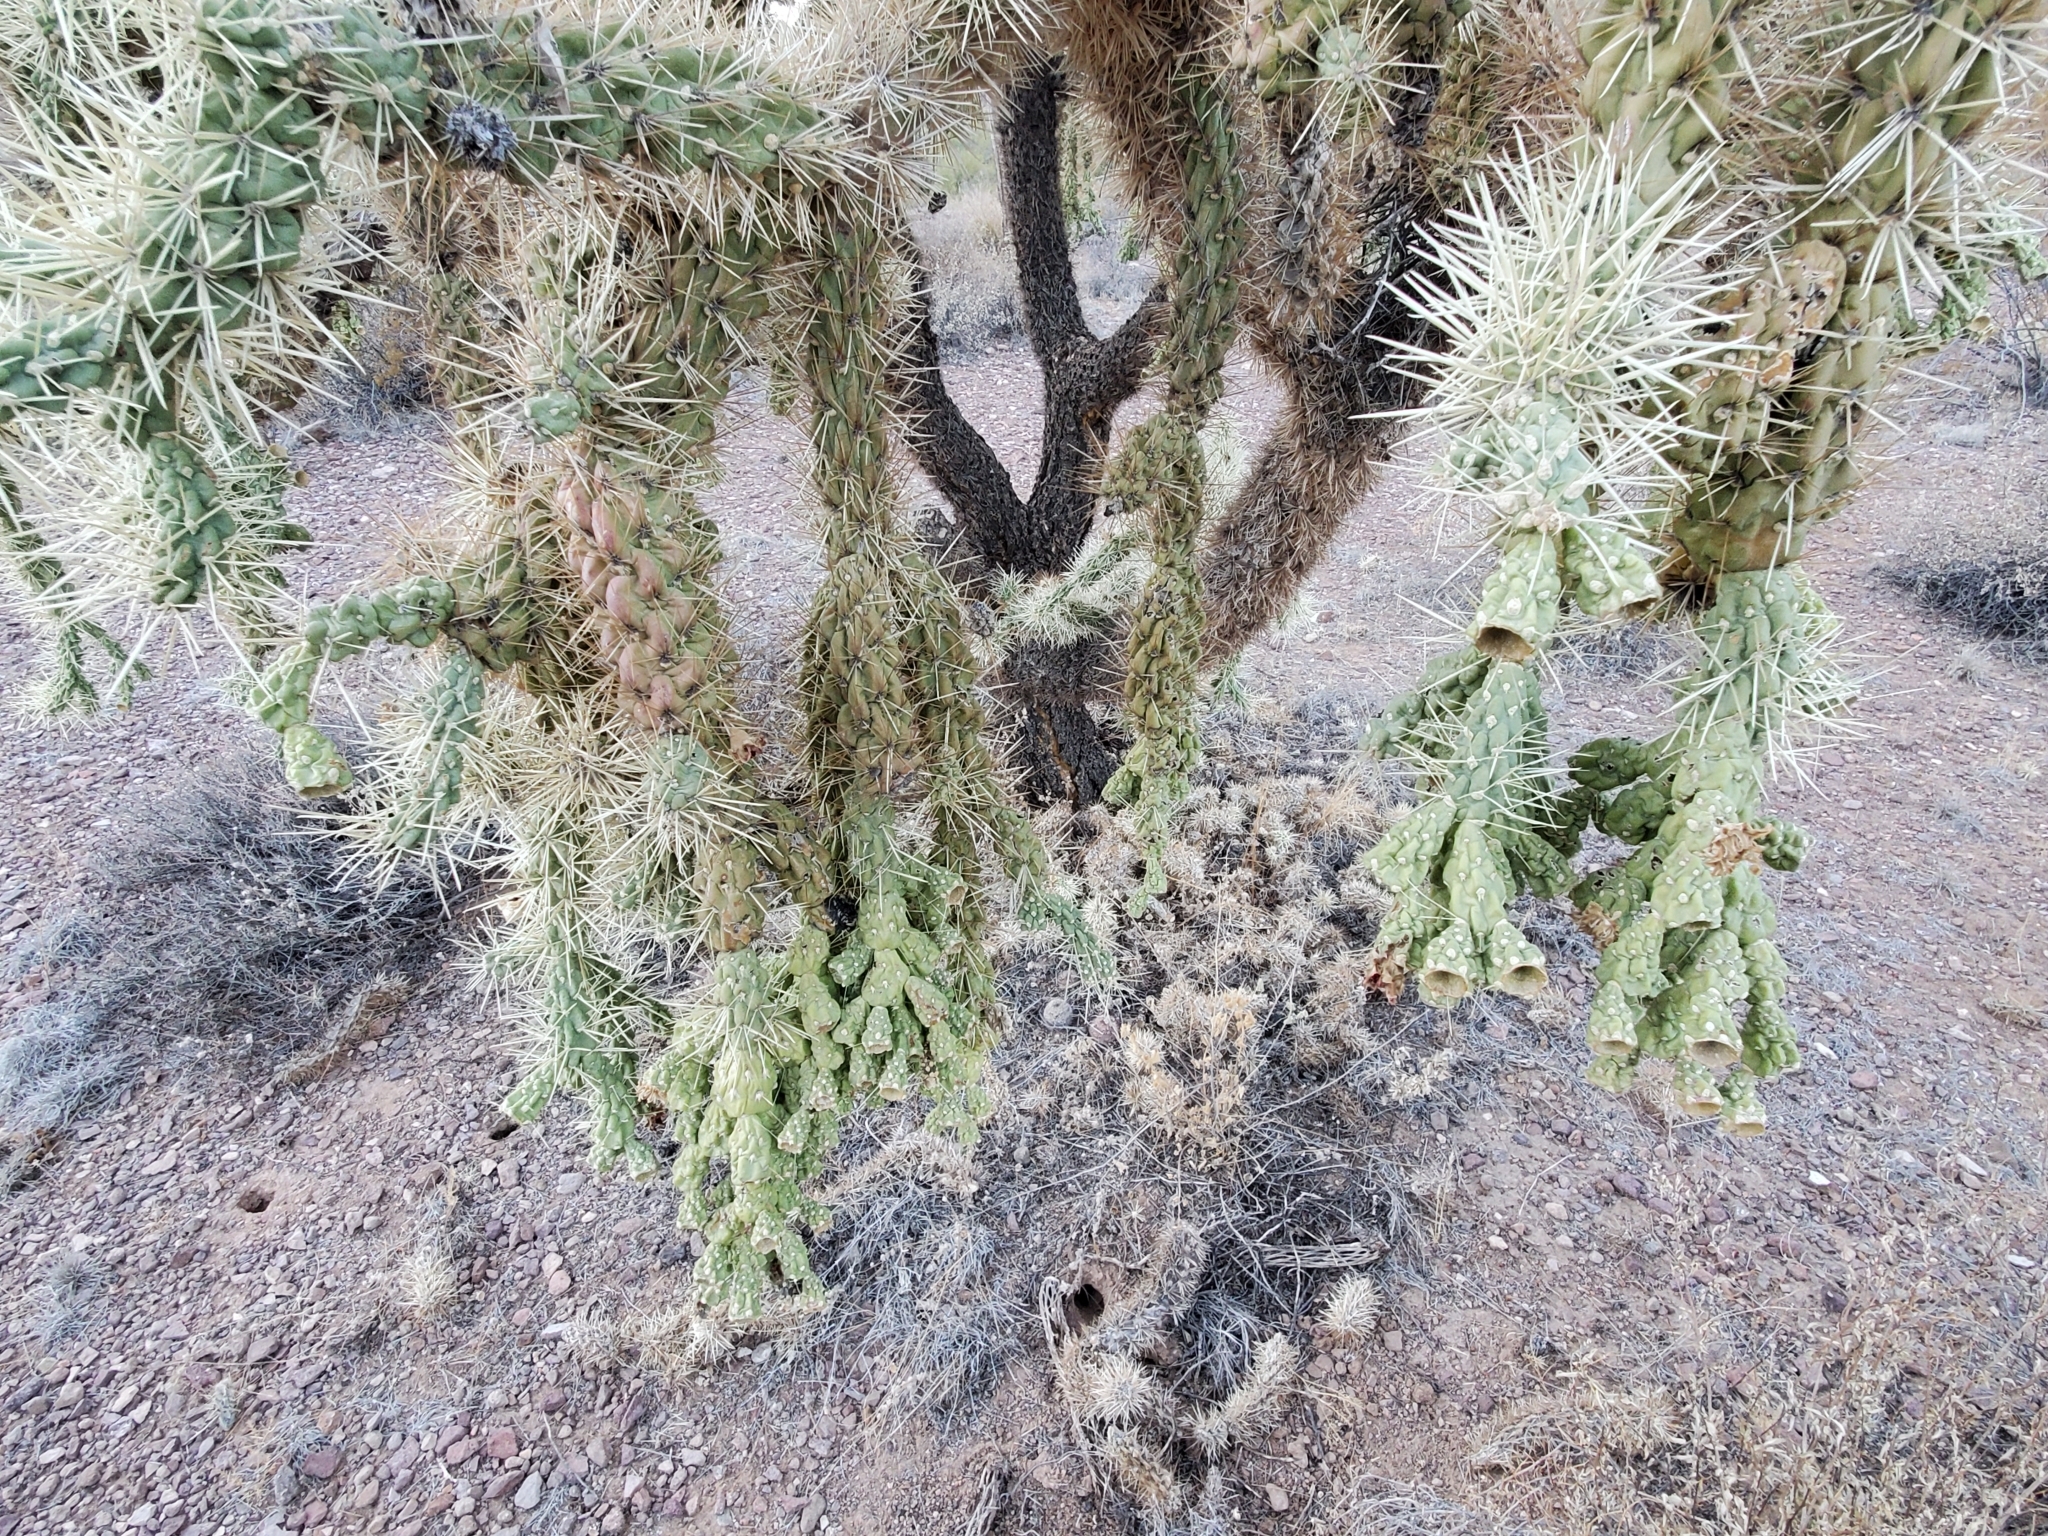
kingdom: Plantae
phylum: Tracheophyta
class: Magnoliopsida
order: Caryophyllales
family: Cactaceae
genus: Cylindropuntia
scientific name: Cylindropuntia fulgida
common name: Jumping cholla
